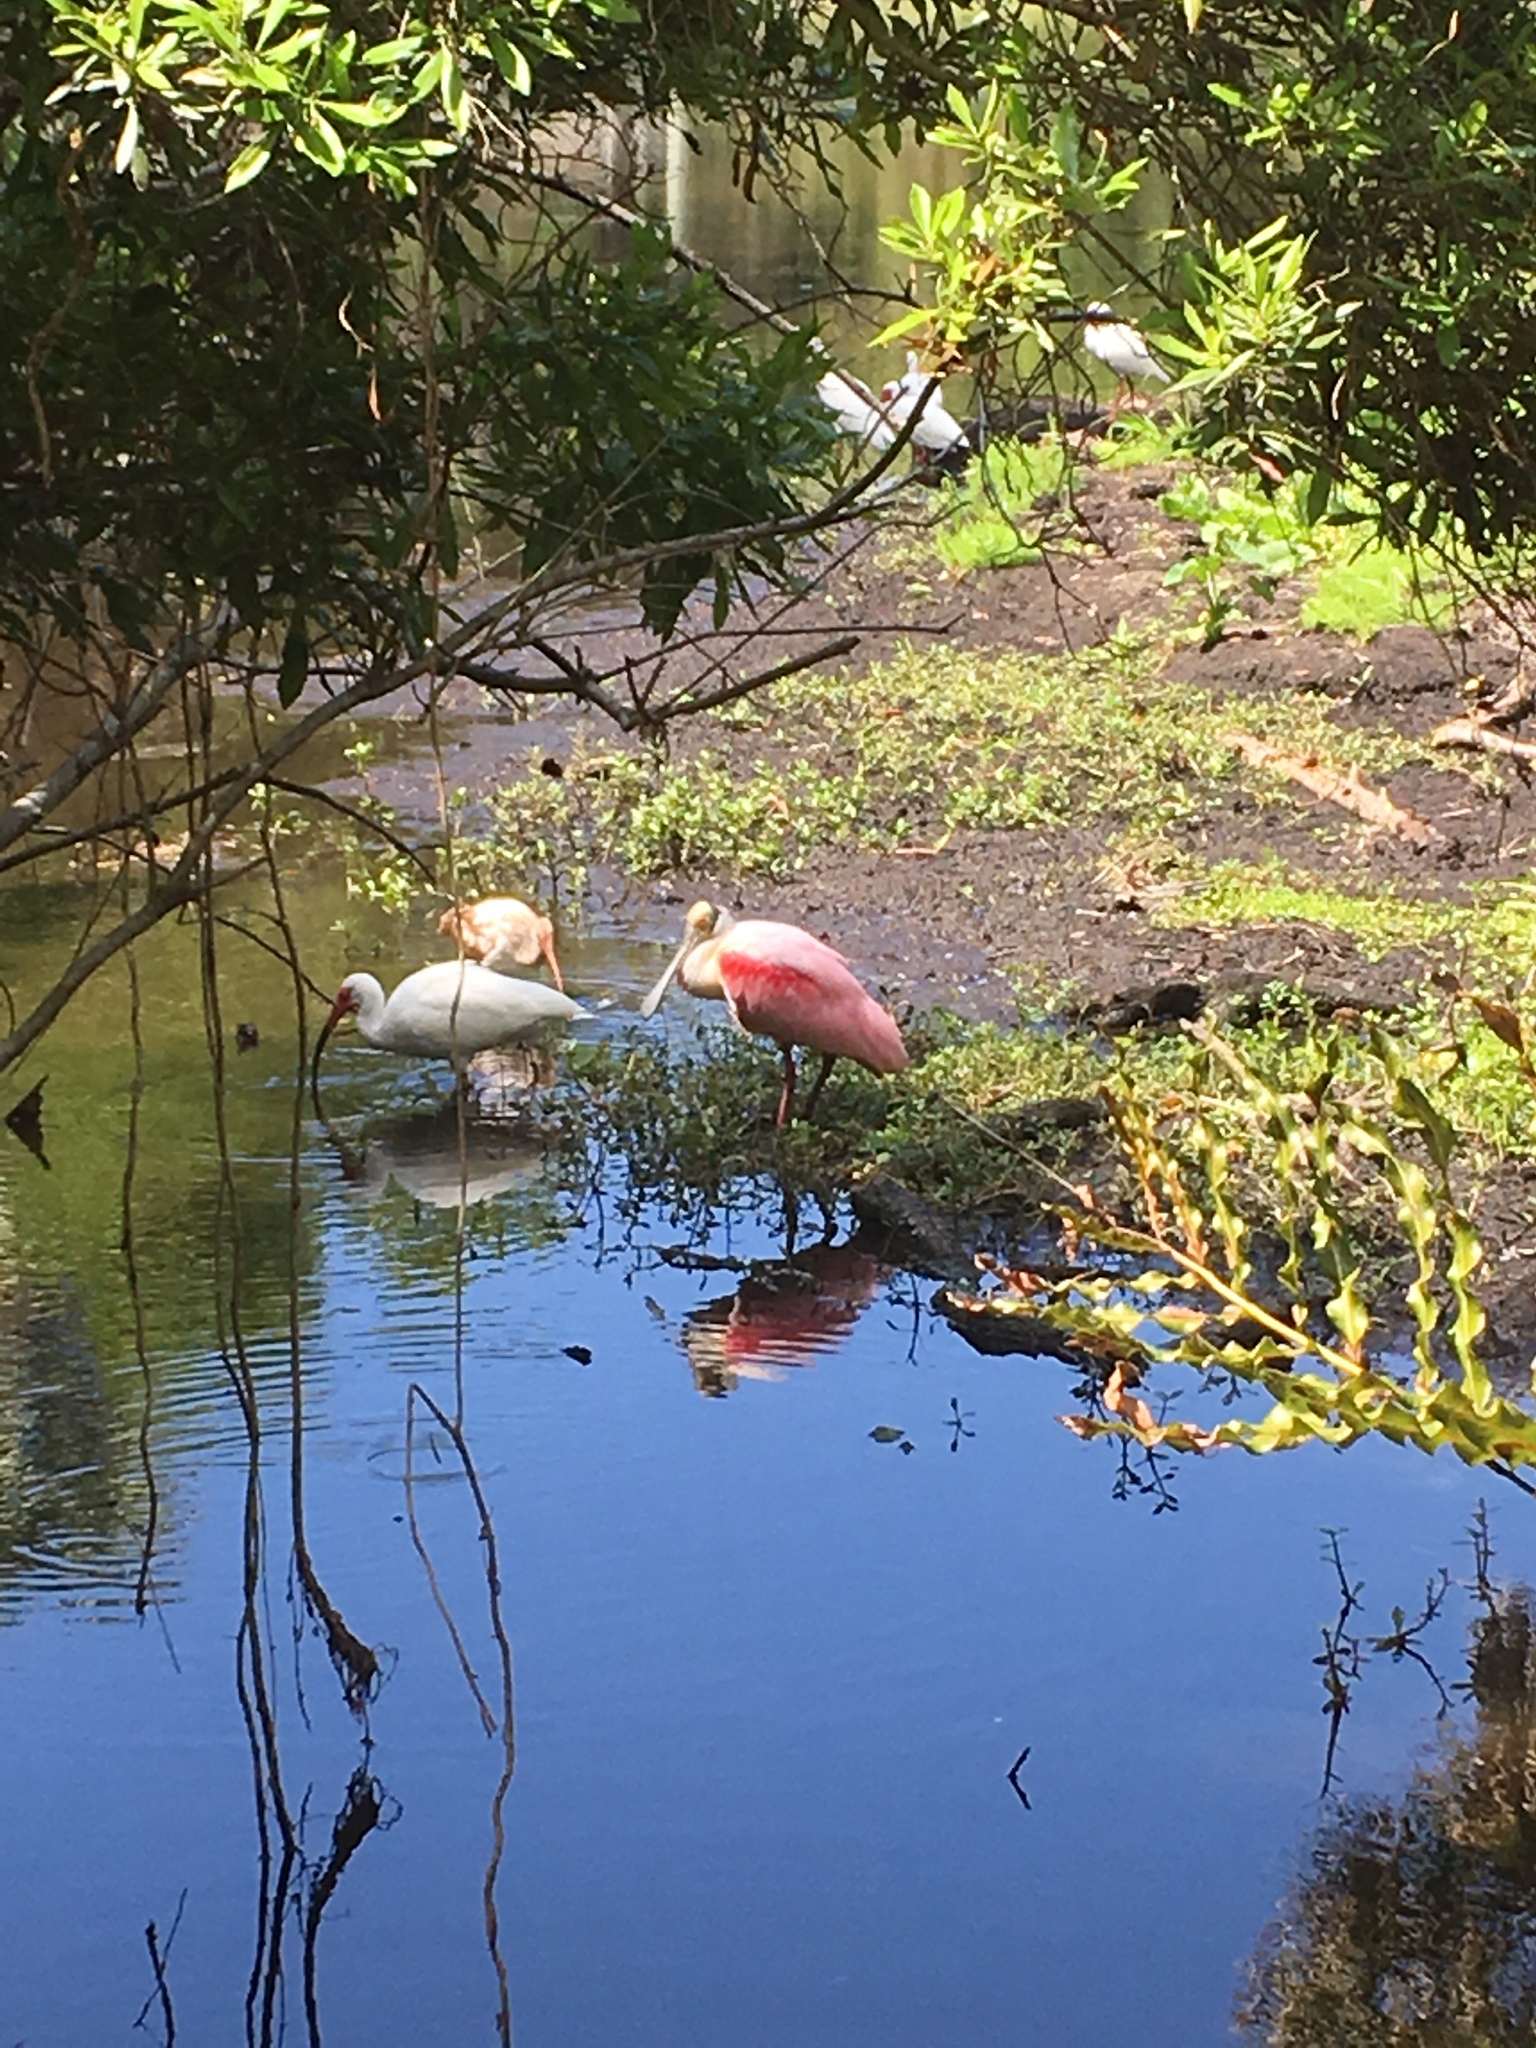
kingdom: Animalia
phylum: Chordata
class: Aves
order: Pelecaniformes
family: Threskiornithidae
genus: Platalea
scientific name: Platalea ajaja
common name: Roseate spoonbill
